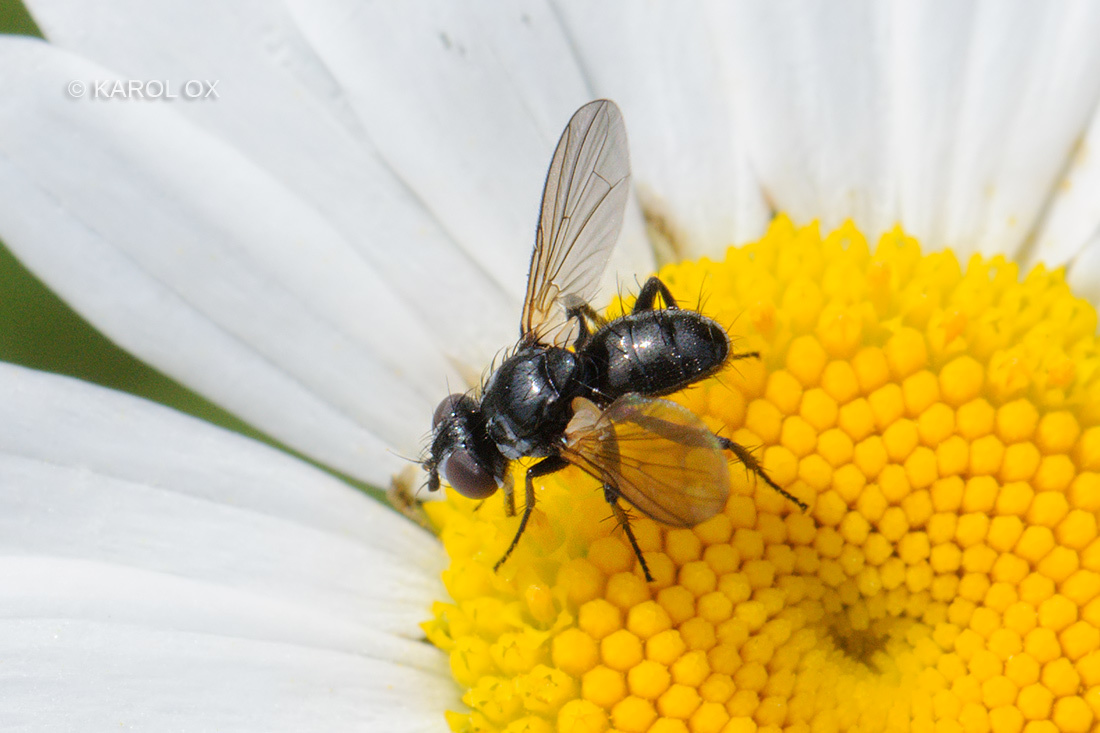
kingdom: Animalia
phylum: Arthropoda
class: Insecta
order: Diptera
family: Tachinidae
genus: Phania
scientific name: Phania funesta
